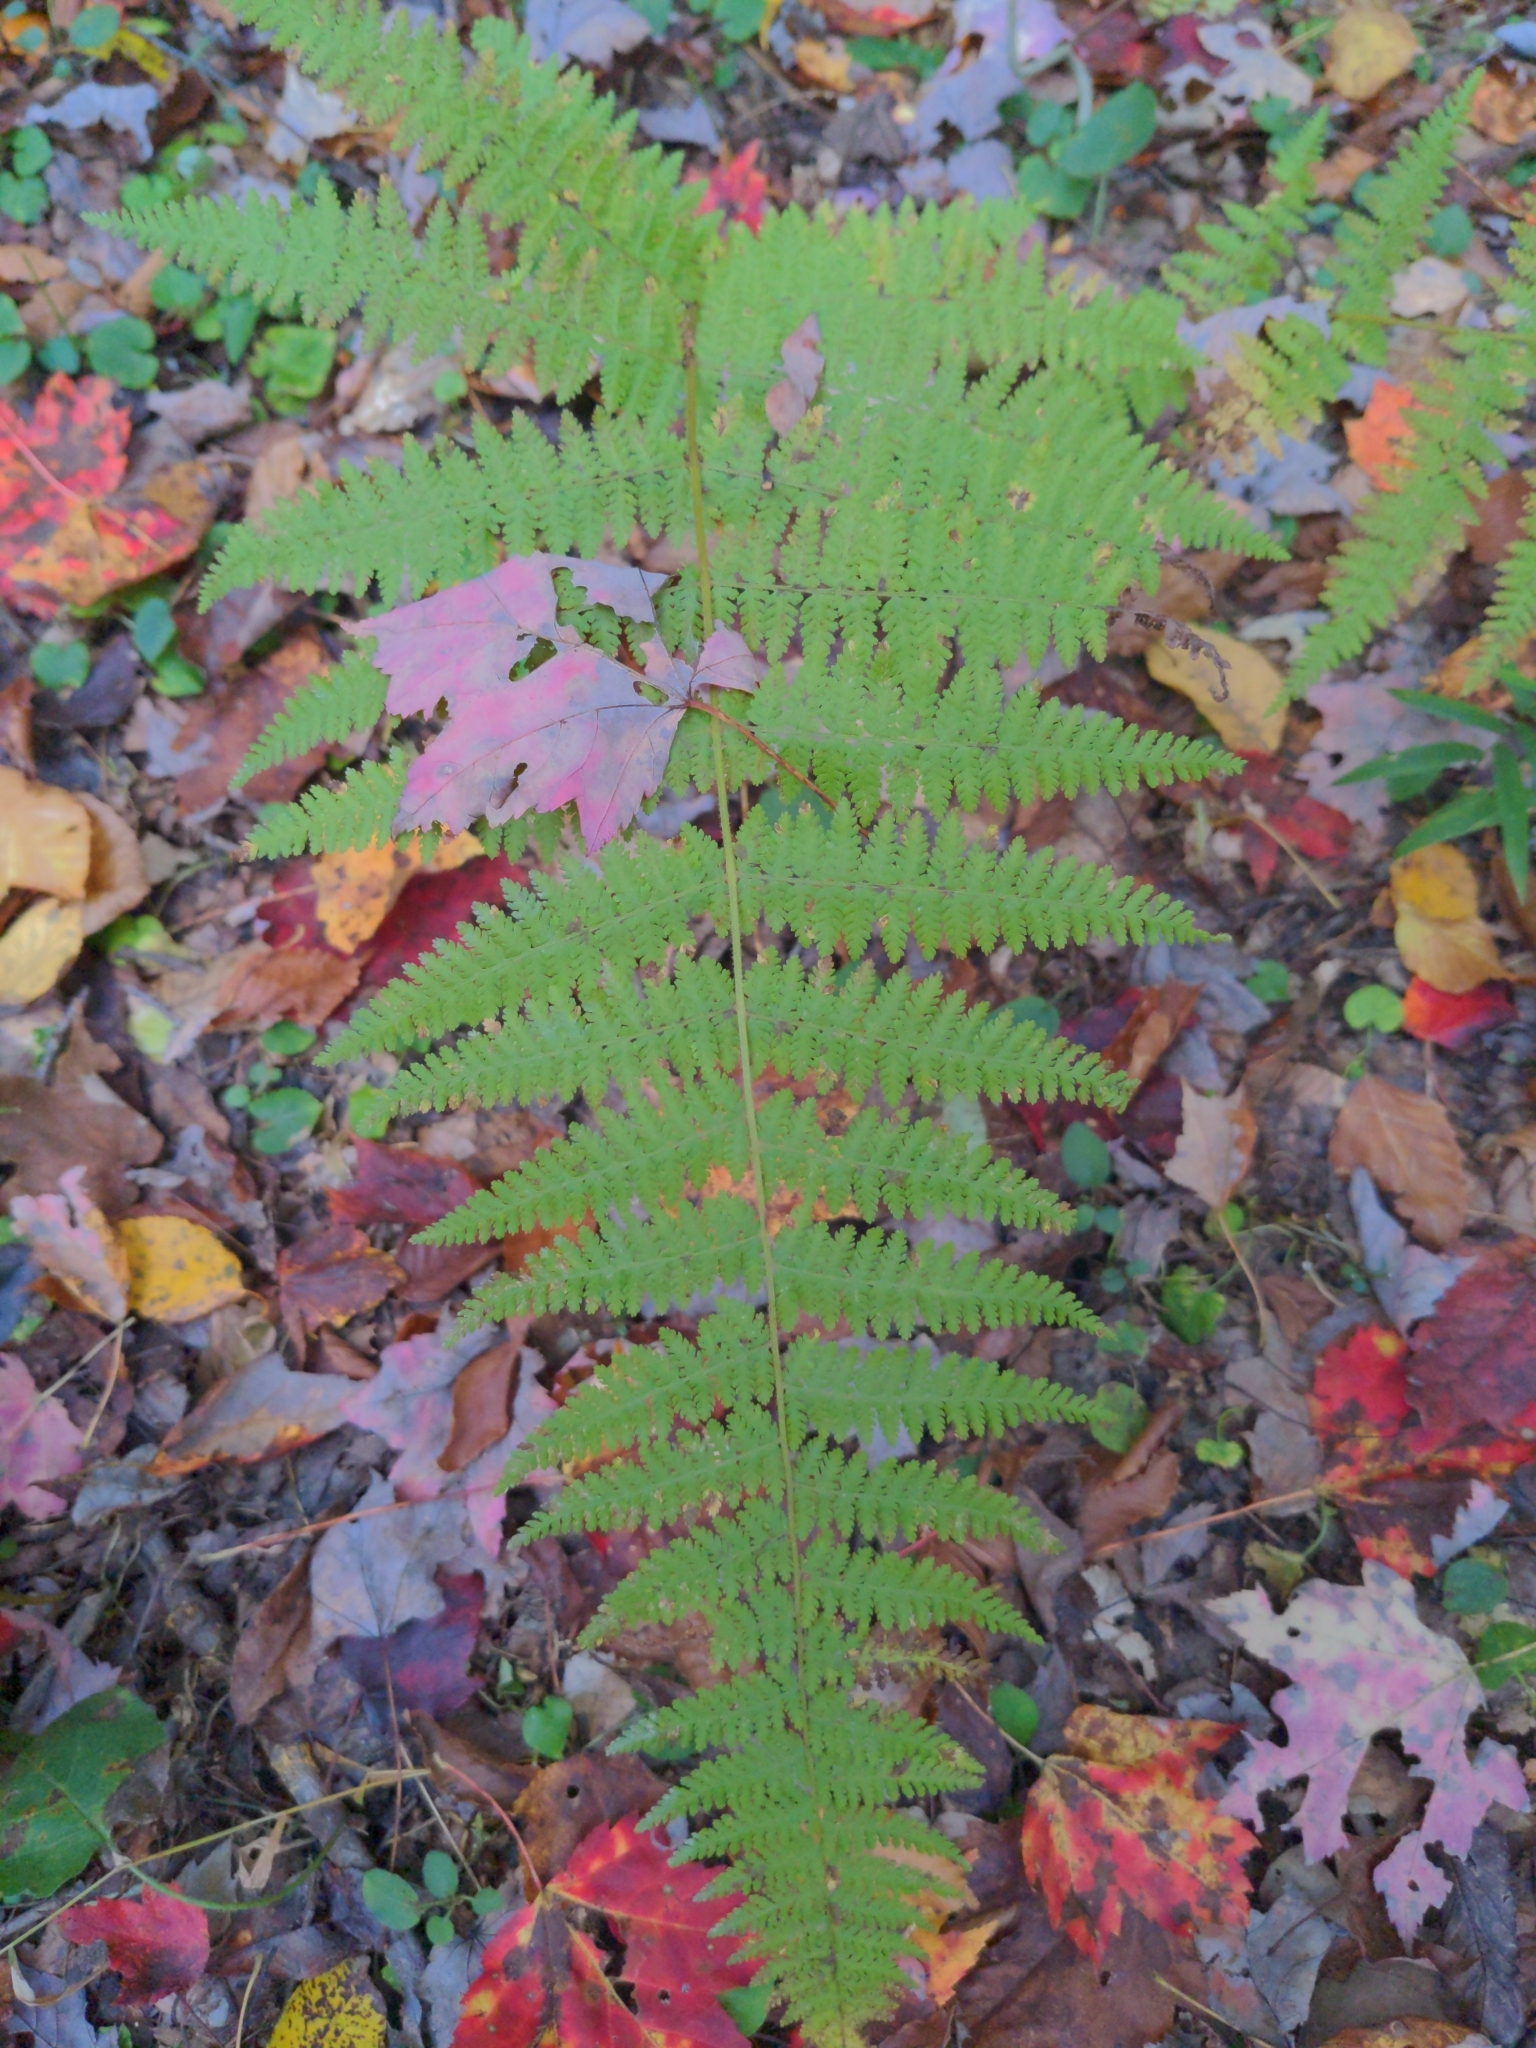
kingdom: Plantae
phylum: Tracheophyta
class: Polypodiopsida
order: Polypodiales
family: Dennstaedtiaceae
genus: Sitobolium
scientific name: Sitobolium punctilobum
